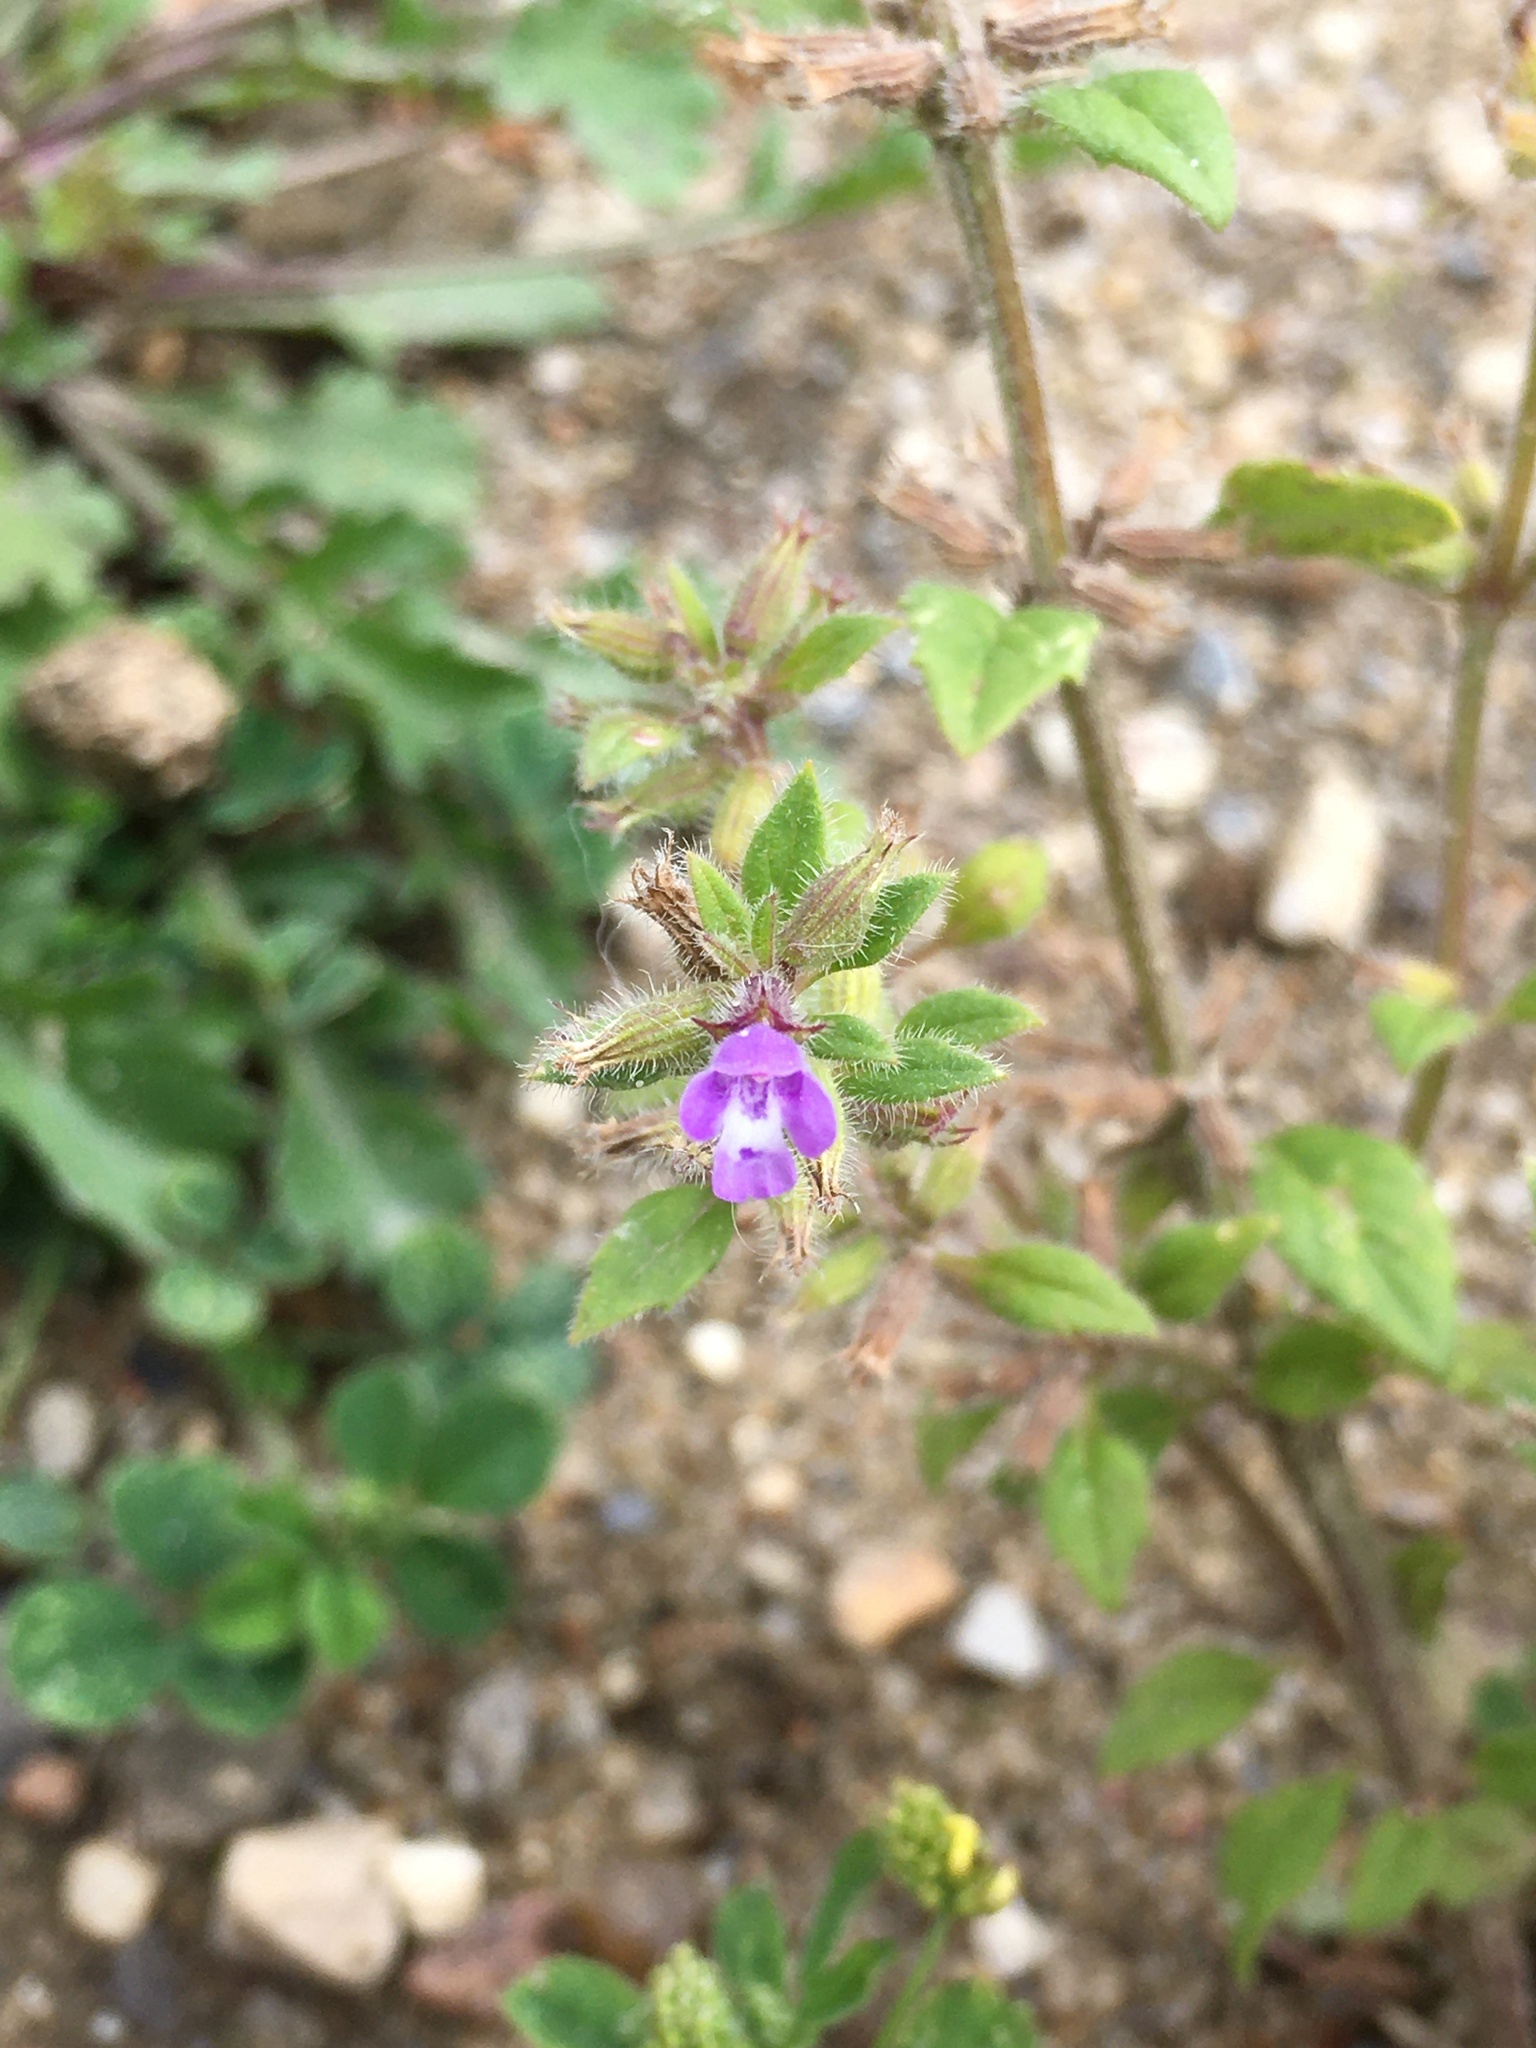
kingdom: Plantae
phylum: Tracheophyta
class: Magnoliopsida
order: Lamiales
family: Lamiaceae
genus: Clinopodium
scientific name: Clinopodium acinos
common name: Basil thyme
